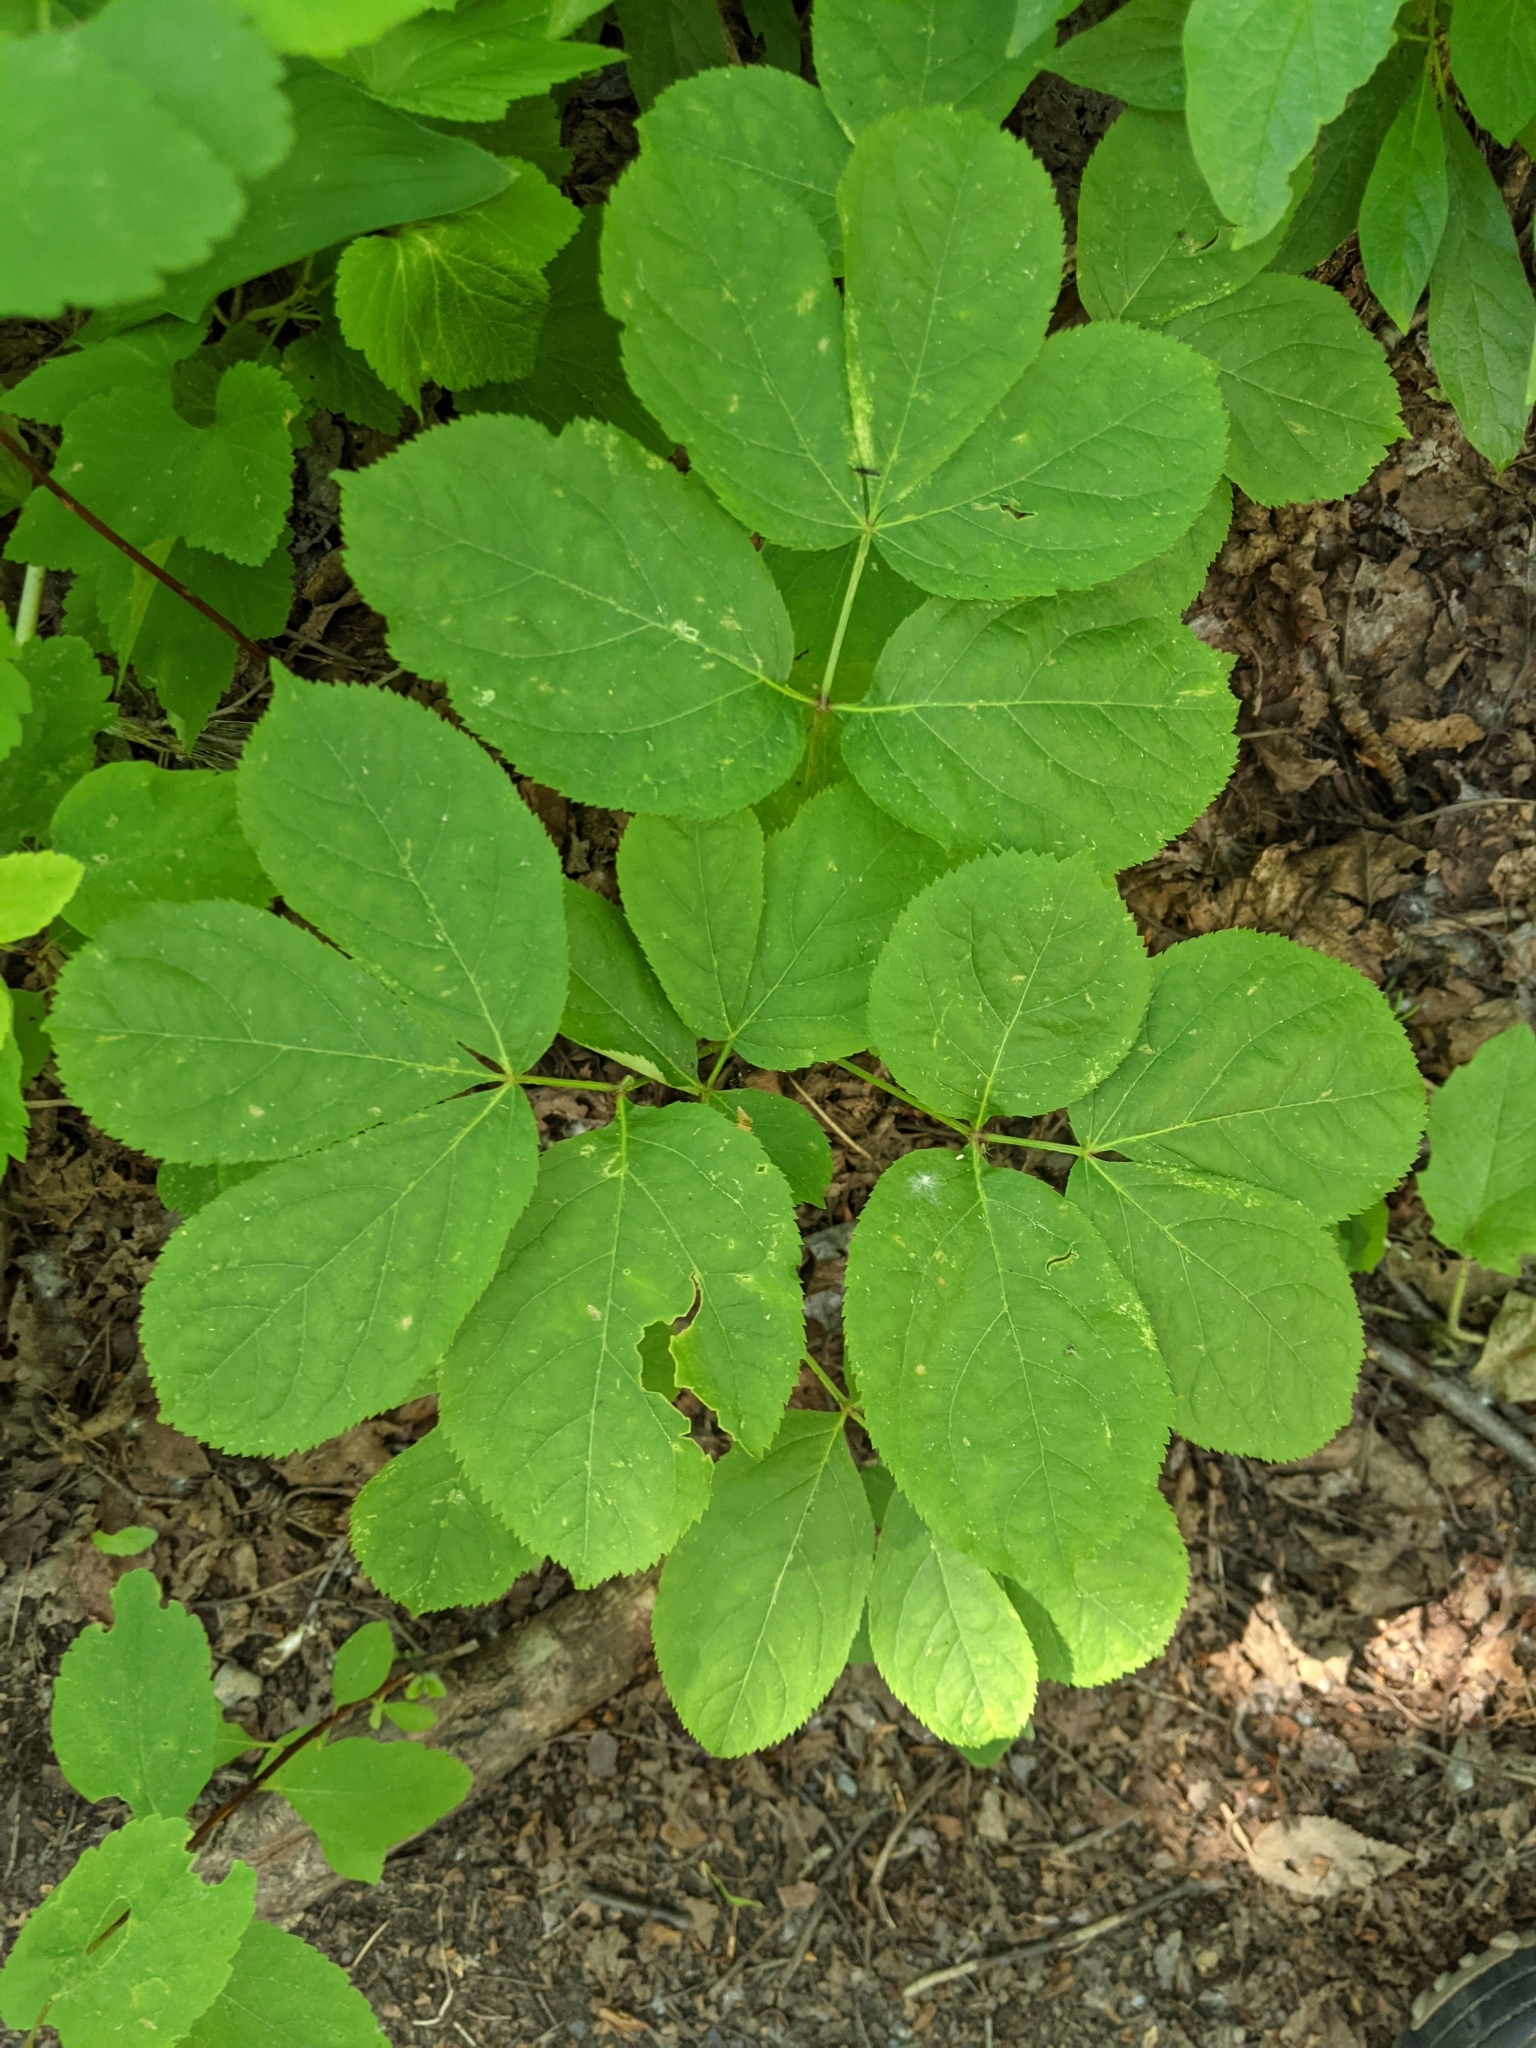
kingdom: Plantae
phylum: Tracheophyta
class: Magnoliopsida
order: Apiales
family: Araliaceae
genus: Aralia
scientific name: Aralia nudicaulis
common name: Wild sarsaparilla
